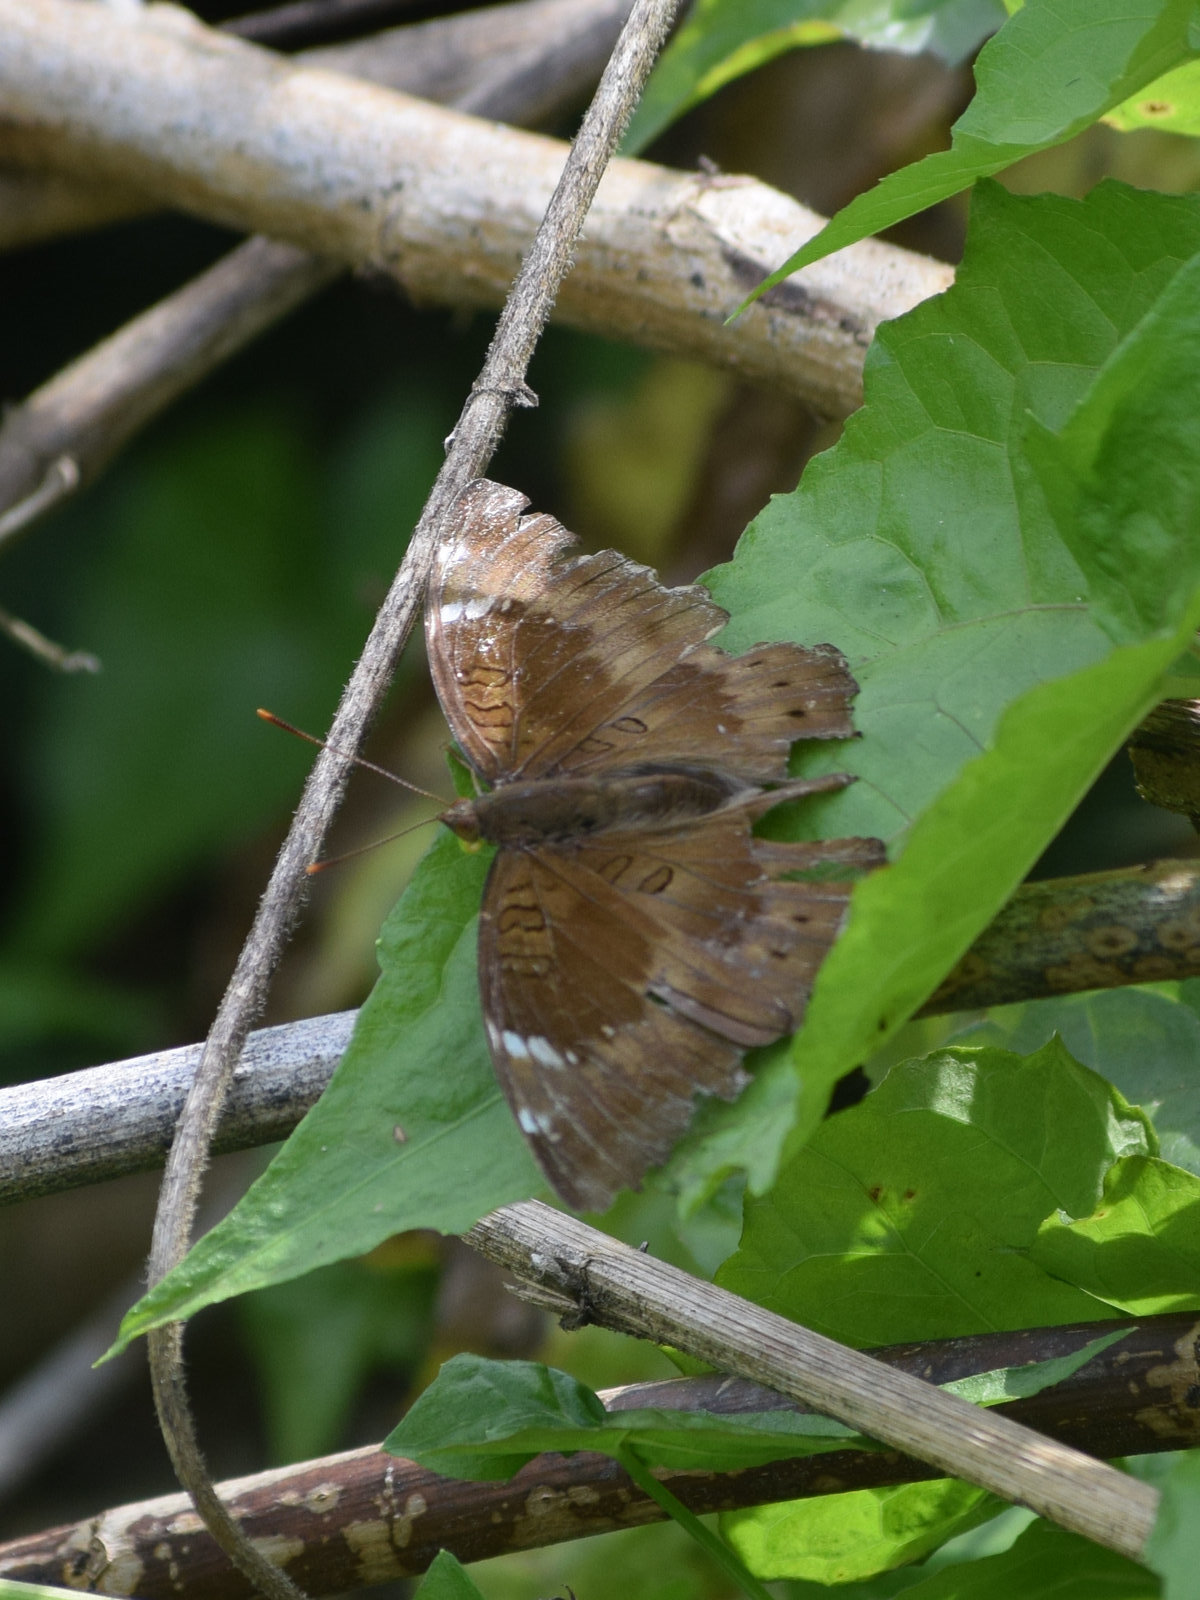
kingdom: Animalia
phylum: Arthropoda
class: Insecta
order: Lepidoptera
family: Nymphalidae
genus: Euthalia
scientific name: Euthalia phemius
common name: White-edged blue baron
